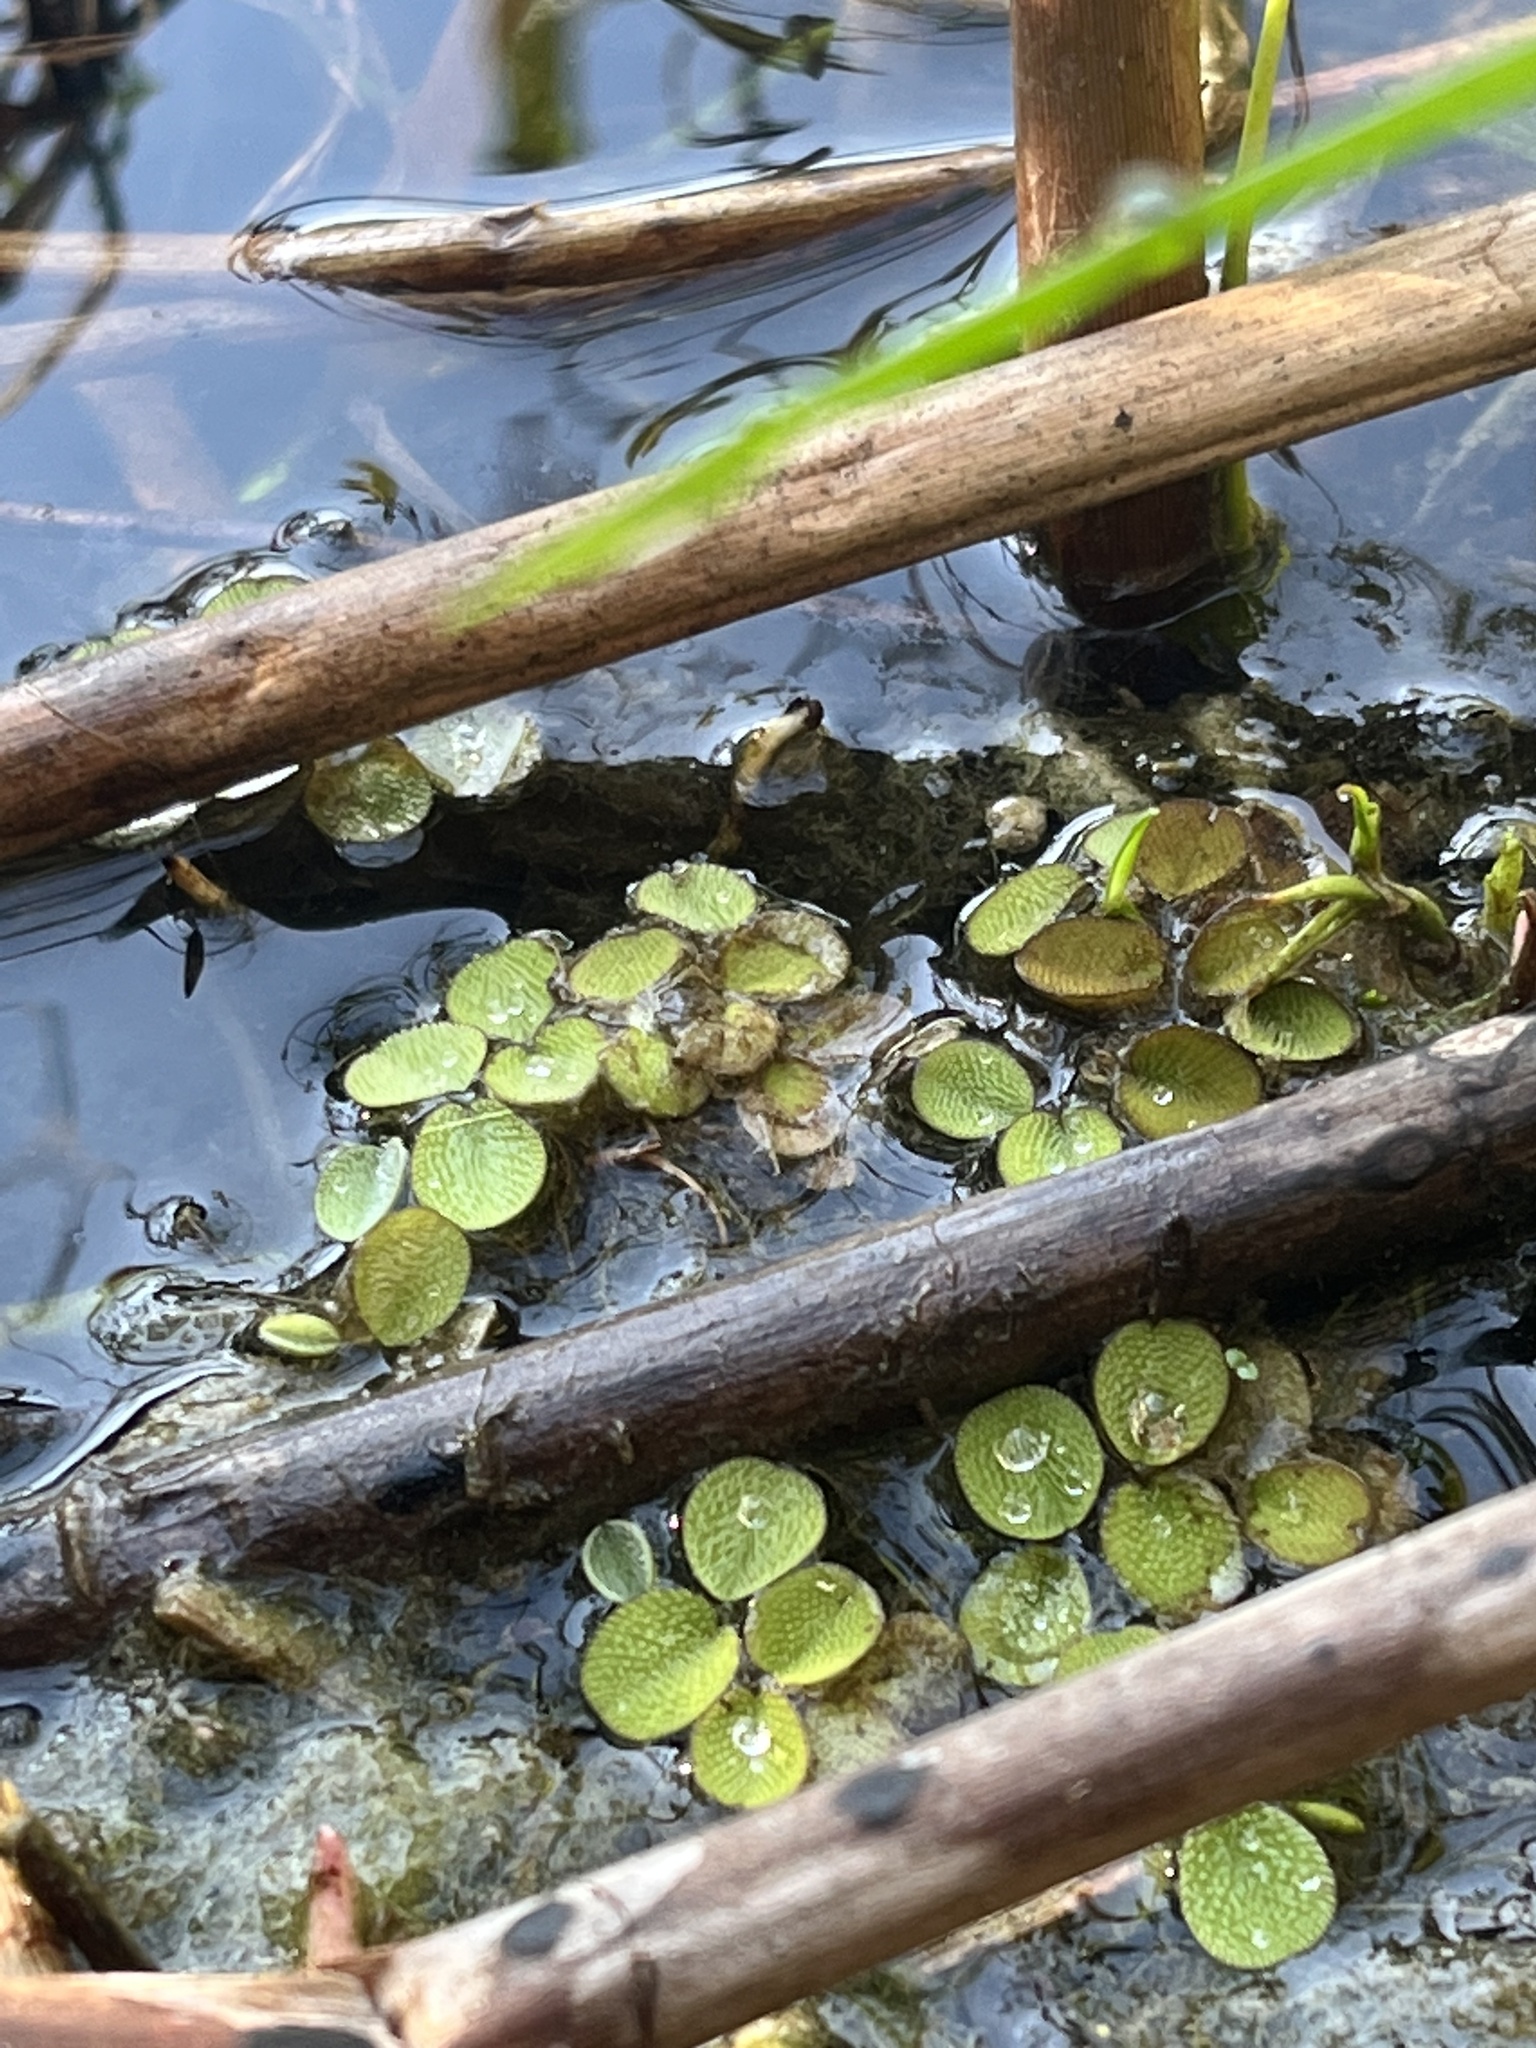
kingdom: Plantae
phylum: Tracheophyta
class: Polypodiopsida
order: Salviniales
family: Salviniaceae
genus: Salvinia
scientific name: Salvinia minima
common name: Water spangles
